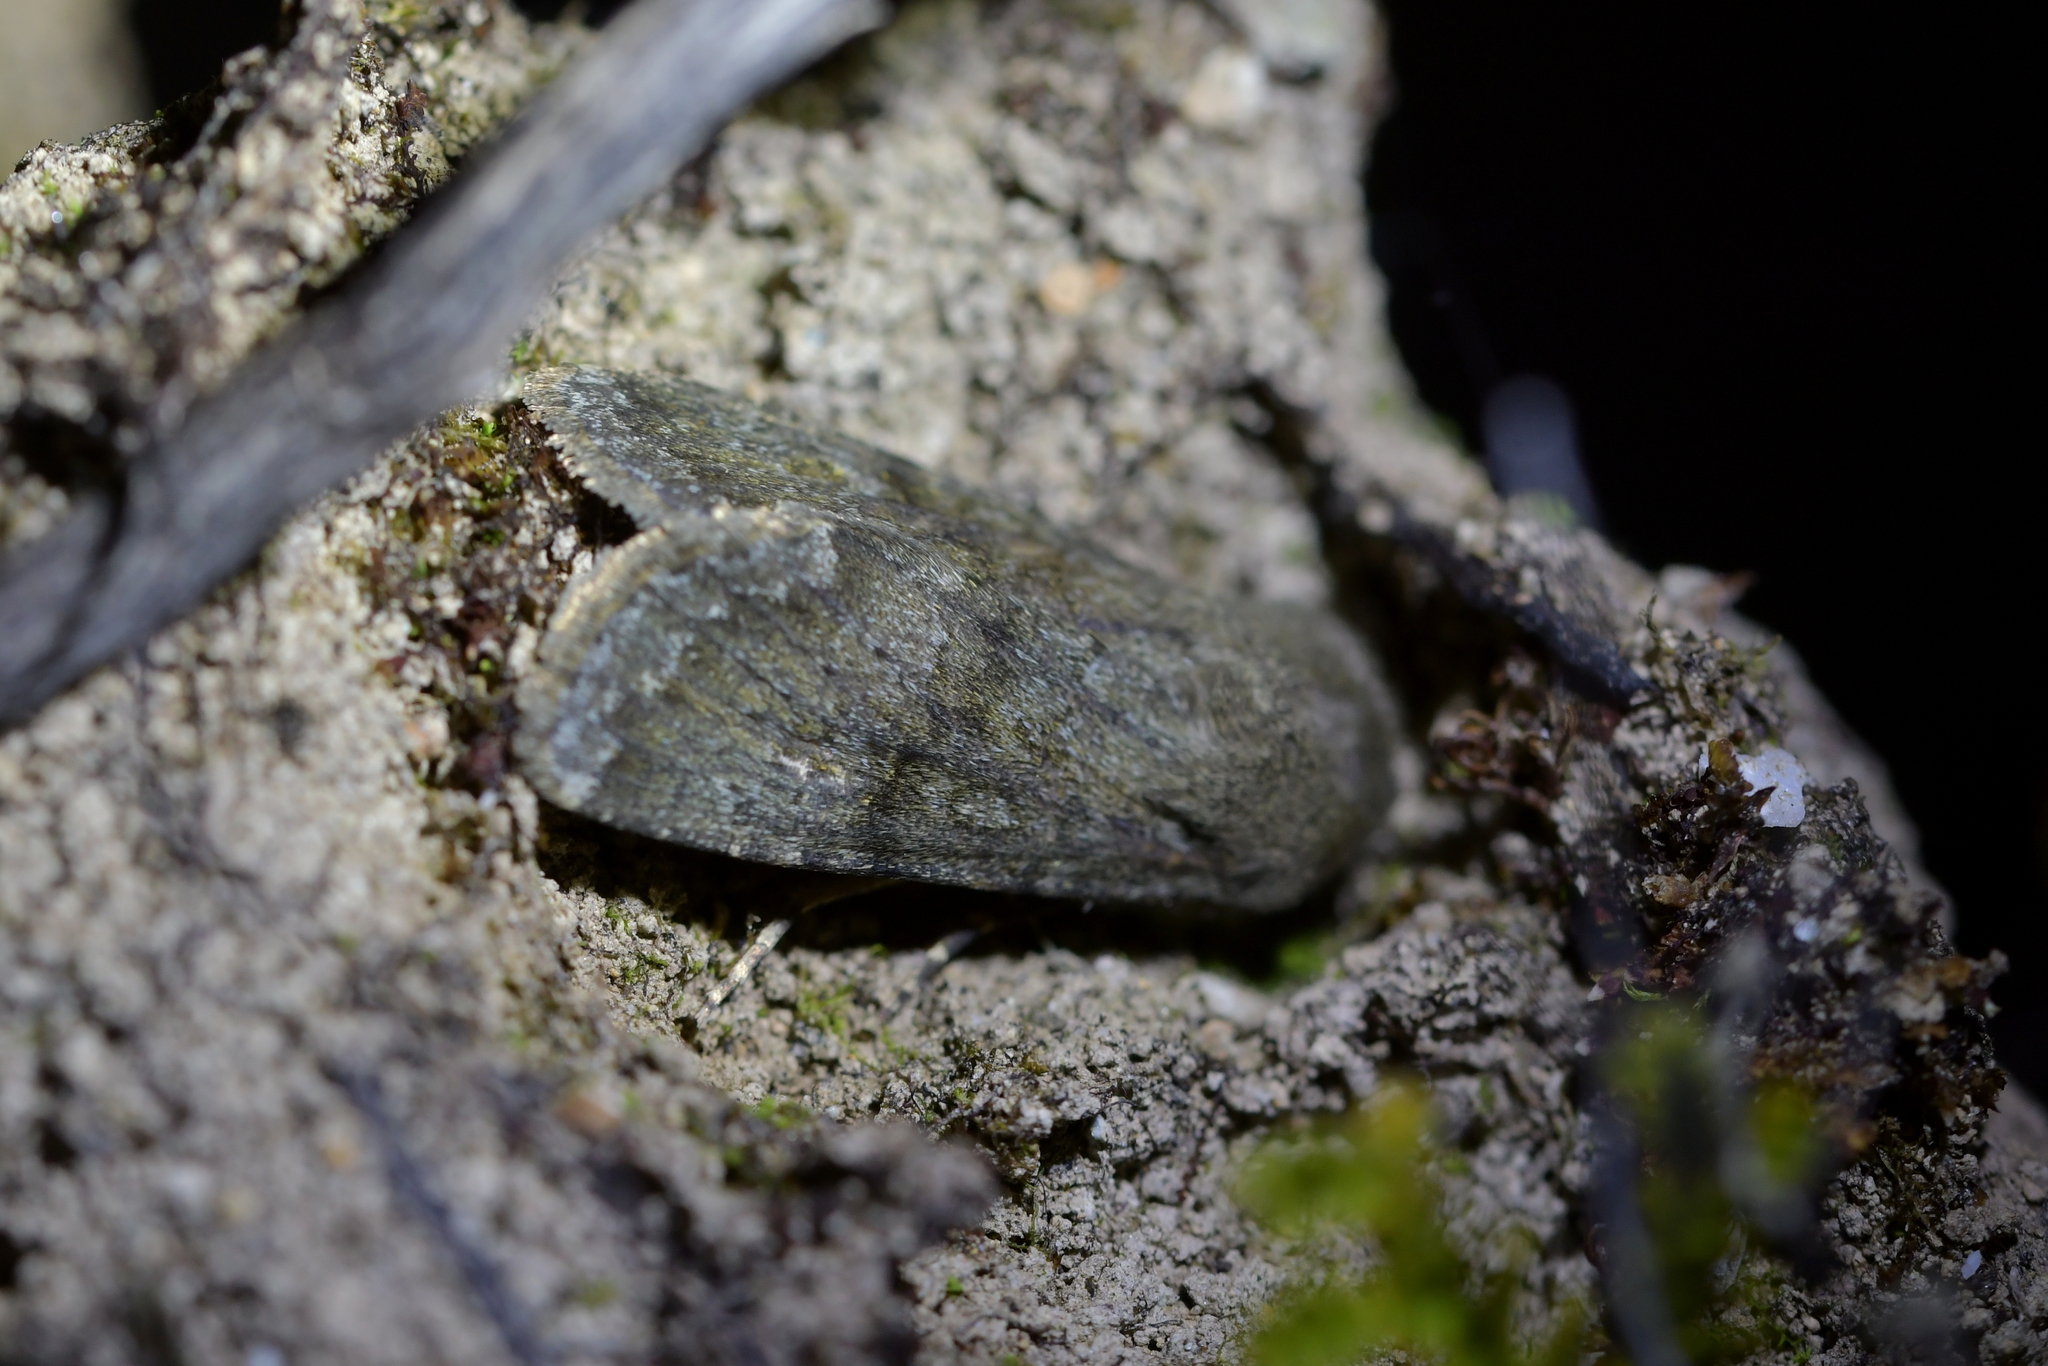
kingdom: Animalia
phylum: Arthropoda
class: Insecta
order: Lepidoptera
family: Noctuidae
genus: Ichneutica
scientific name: Ichneutica moderata
